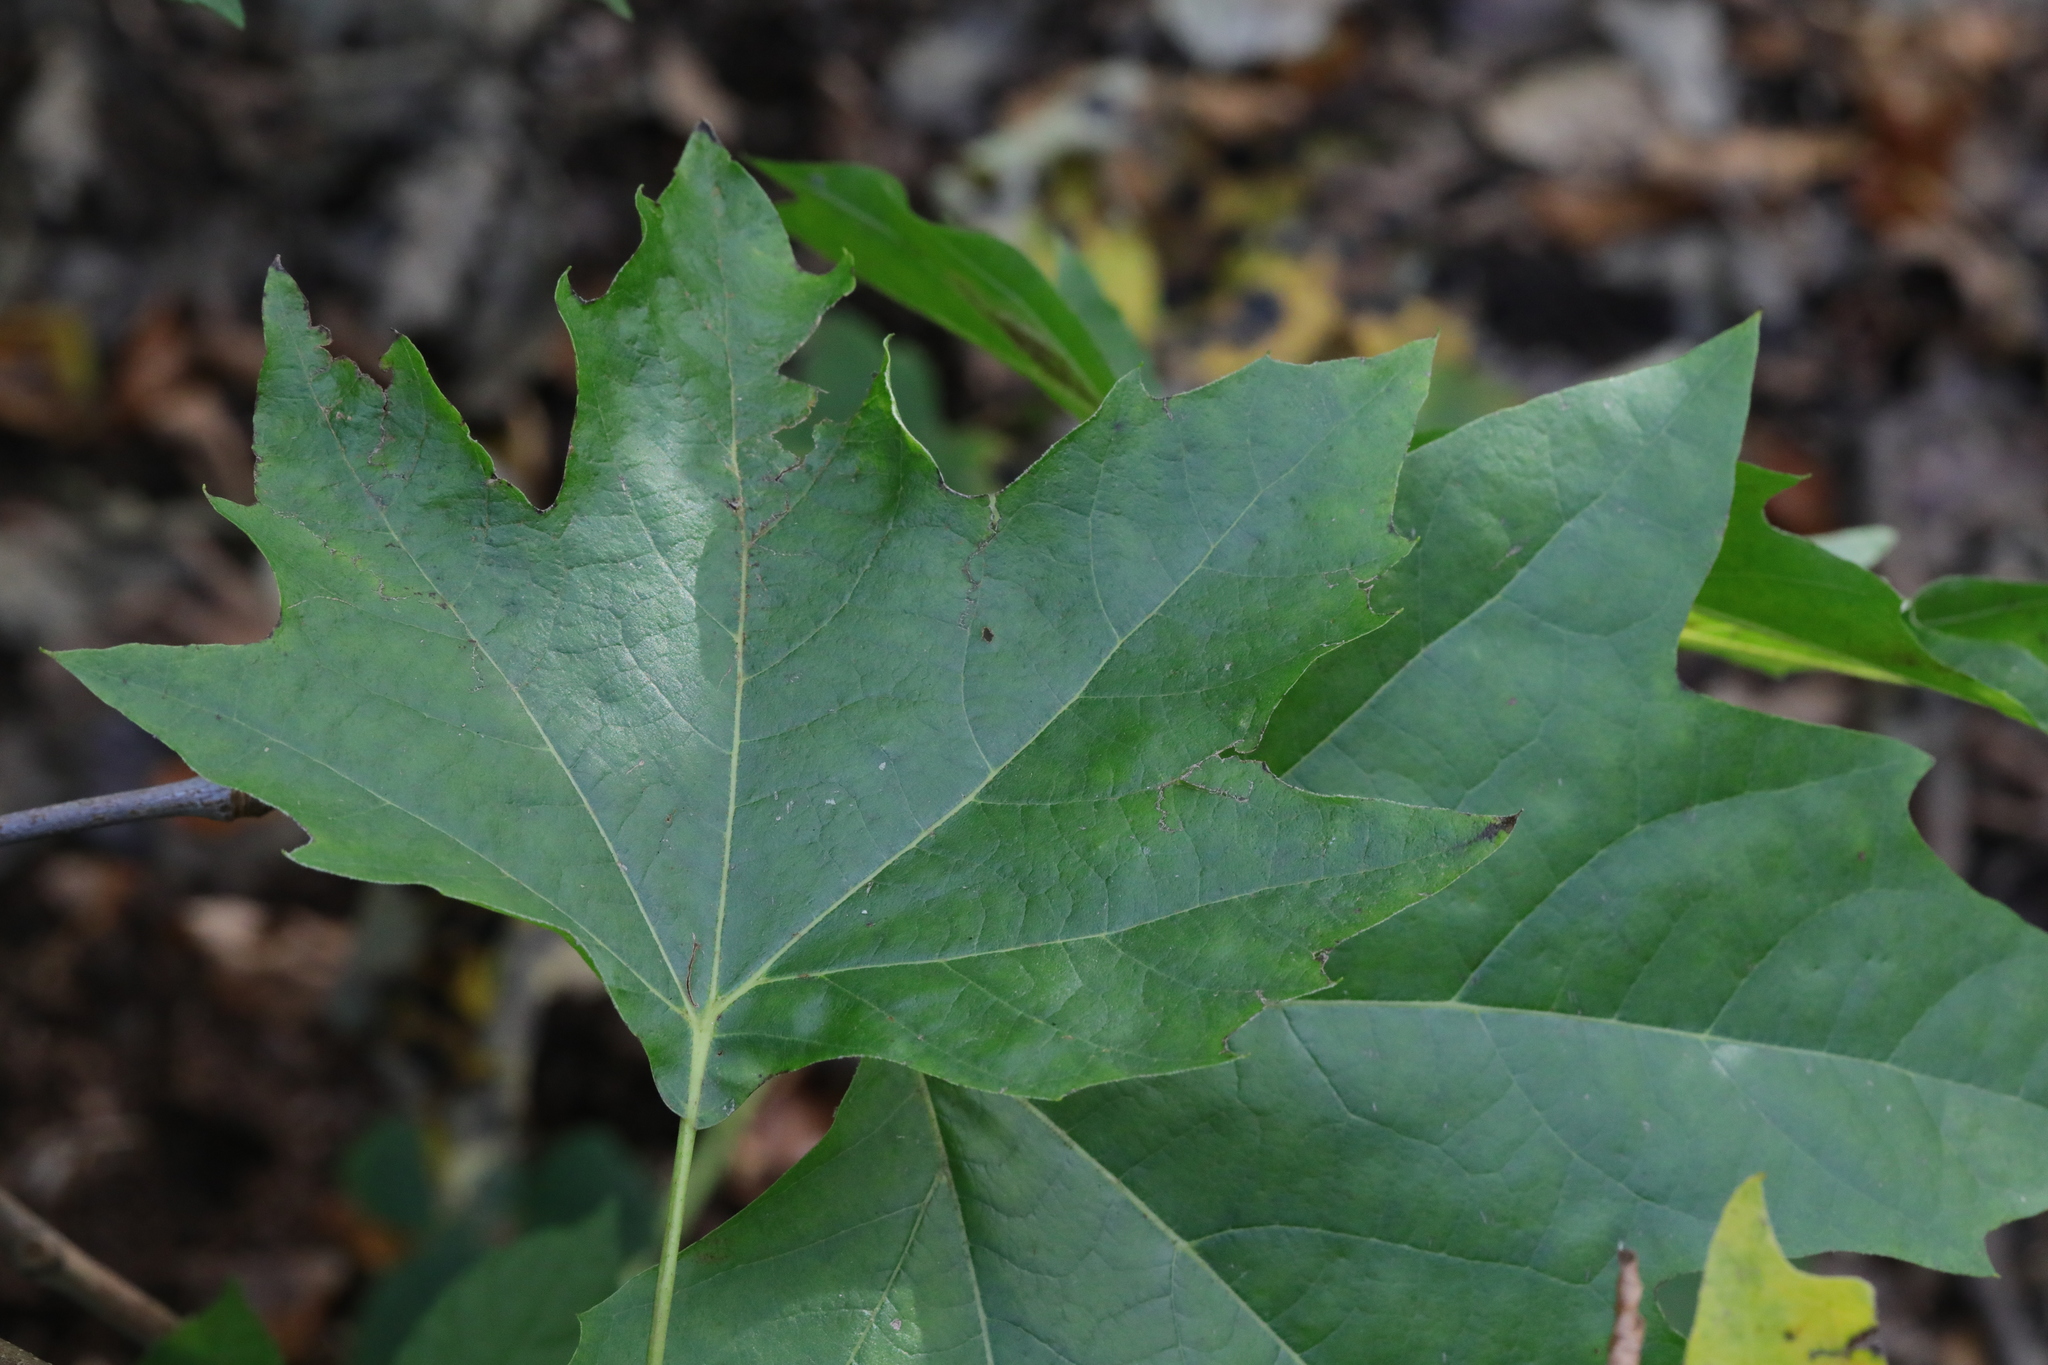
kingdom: Plantae
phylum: Tracheophyta
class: Magnoliopsida
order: Proteales
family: Platanaceae
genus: Platanus
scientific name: Platanus hispanica
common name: London plane
